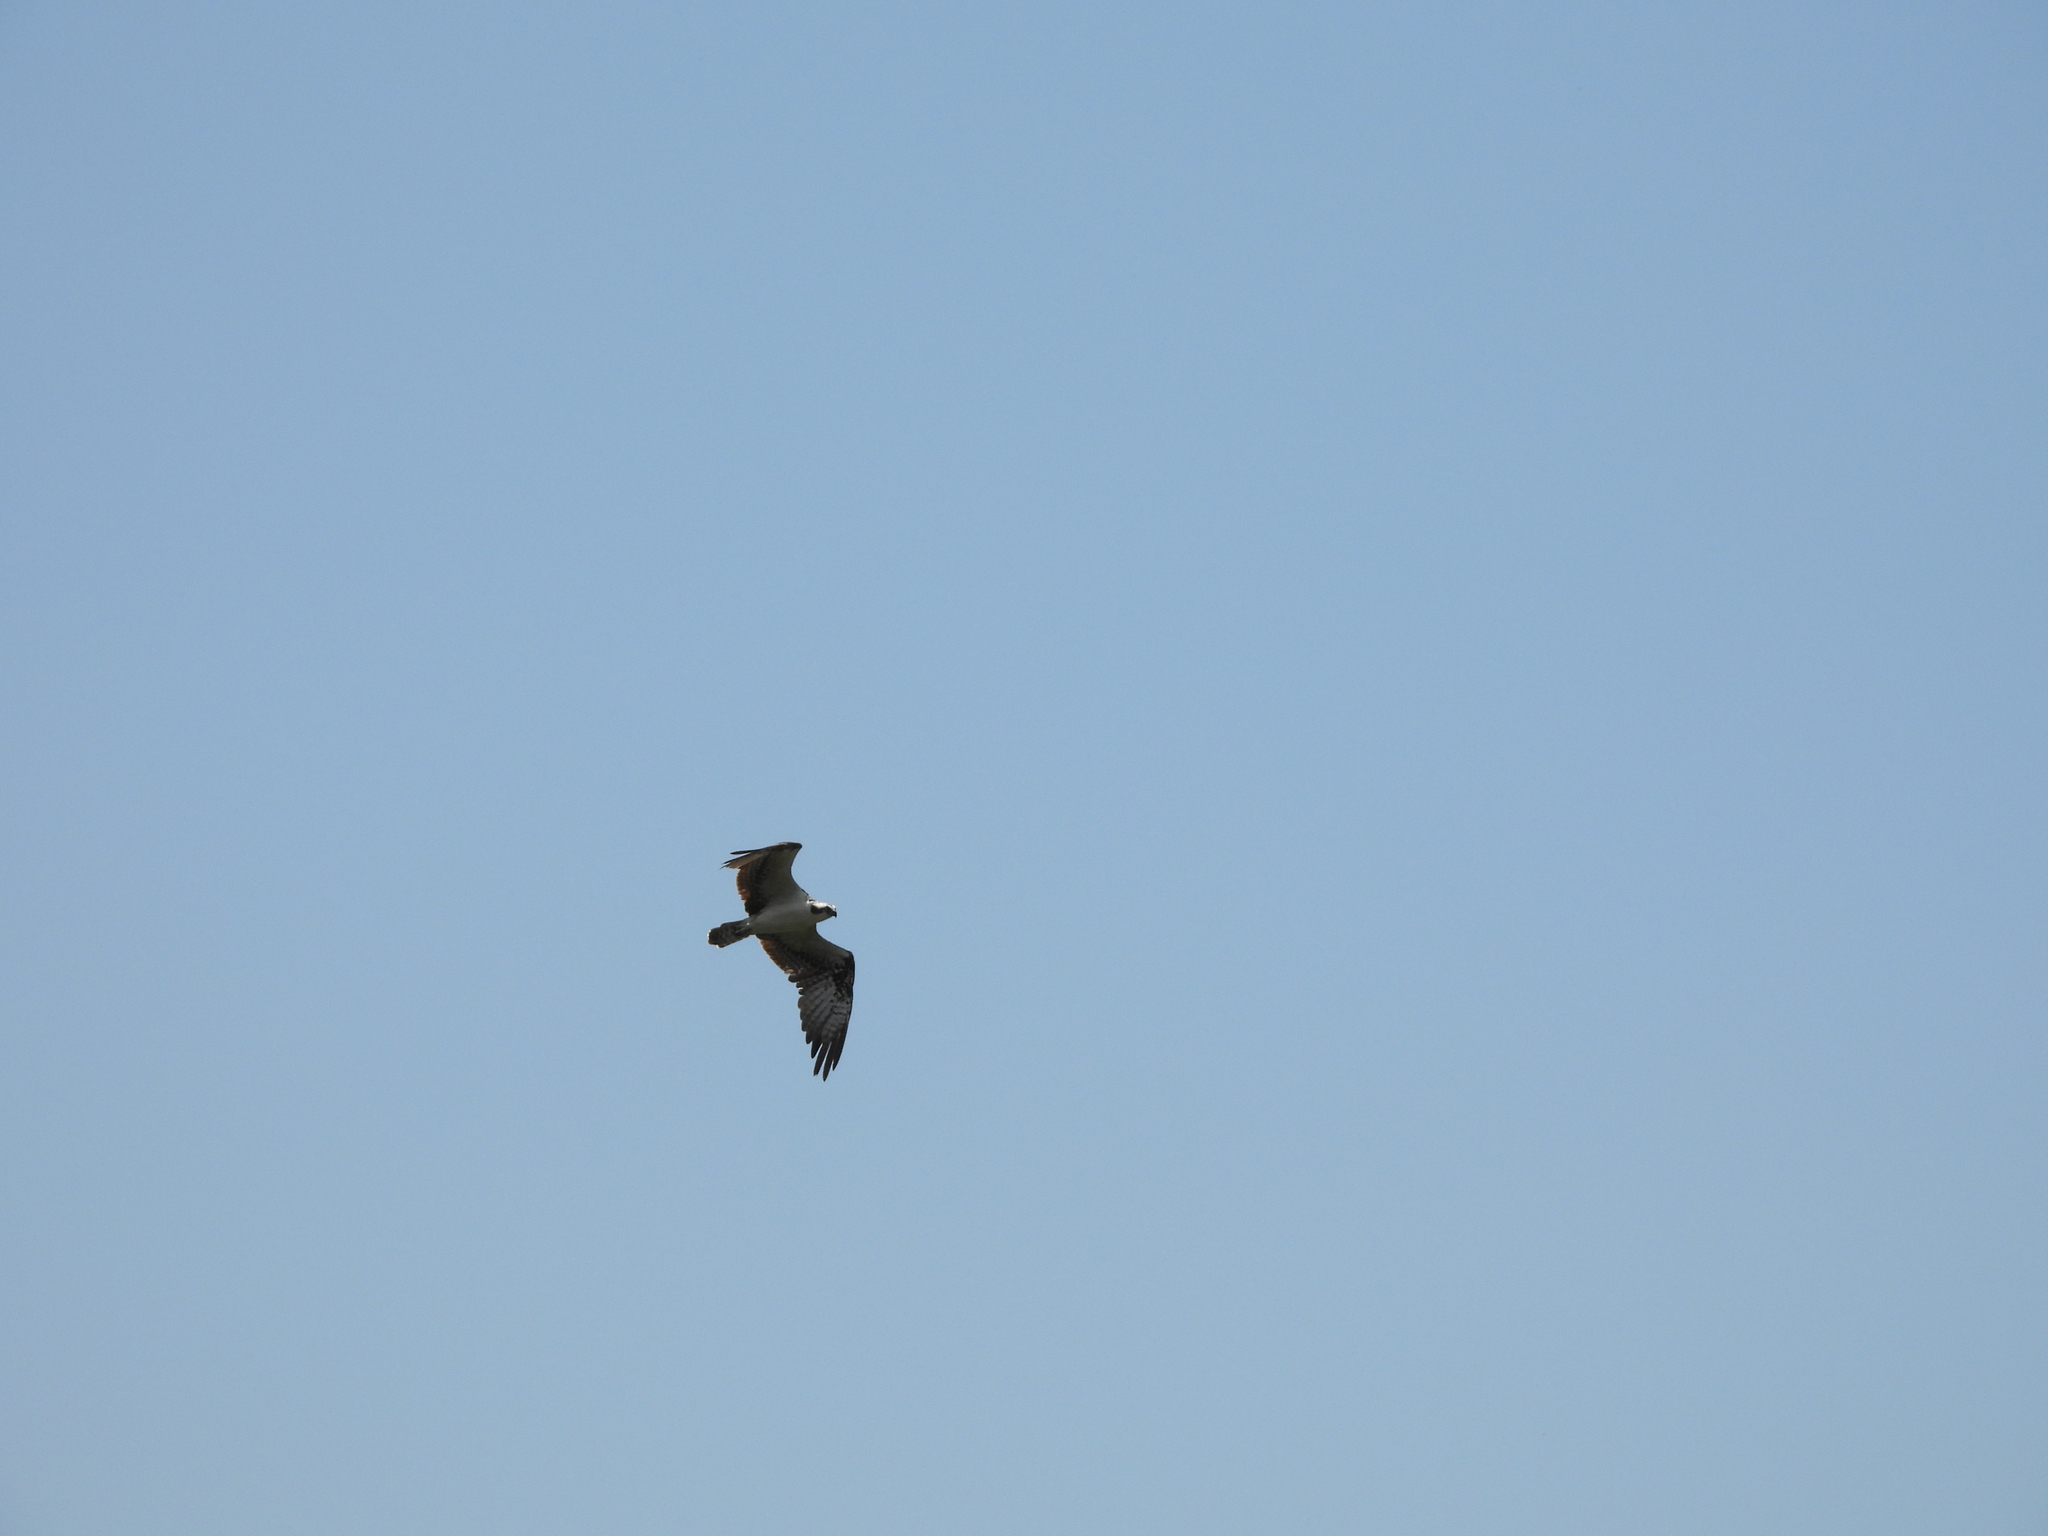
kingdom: Animalia
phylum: Chordata
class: Aves
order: Accipitriformes
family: Pandionidae
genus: Pandion
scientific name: Pandion haliaetus
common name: Osprey
